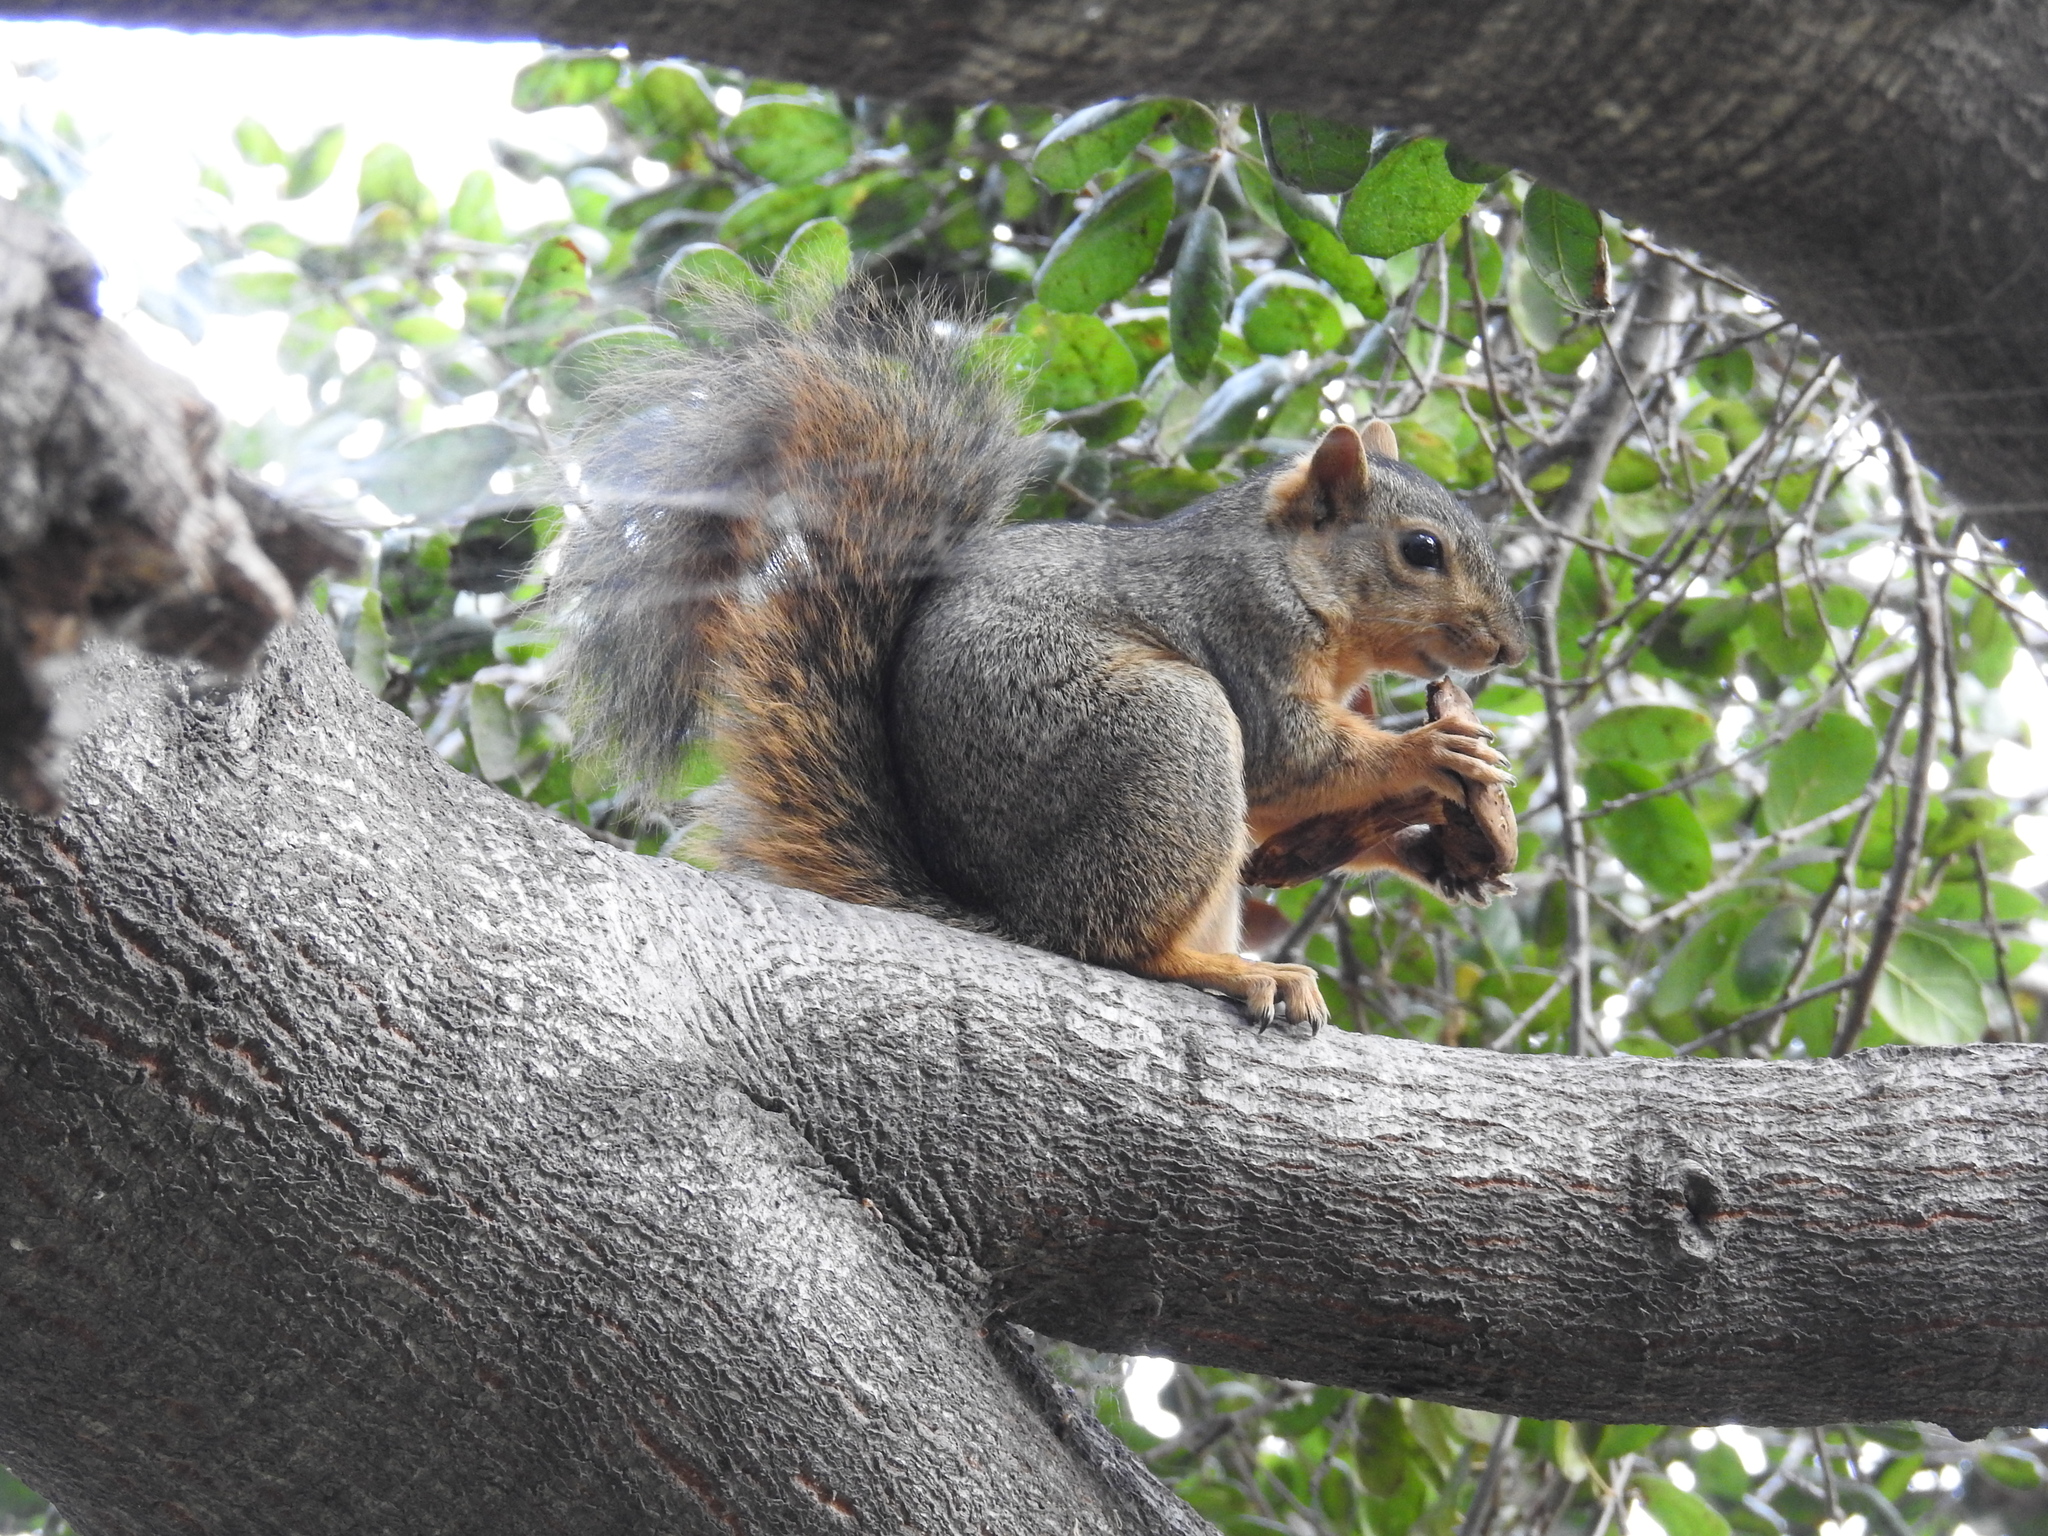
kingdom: Animalia
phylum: Chordata
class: Mammalia
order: Rodentia
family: Sciuridae
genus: Sciurus
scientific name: Sciurus niger
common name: Fox squirrel
